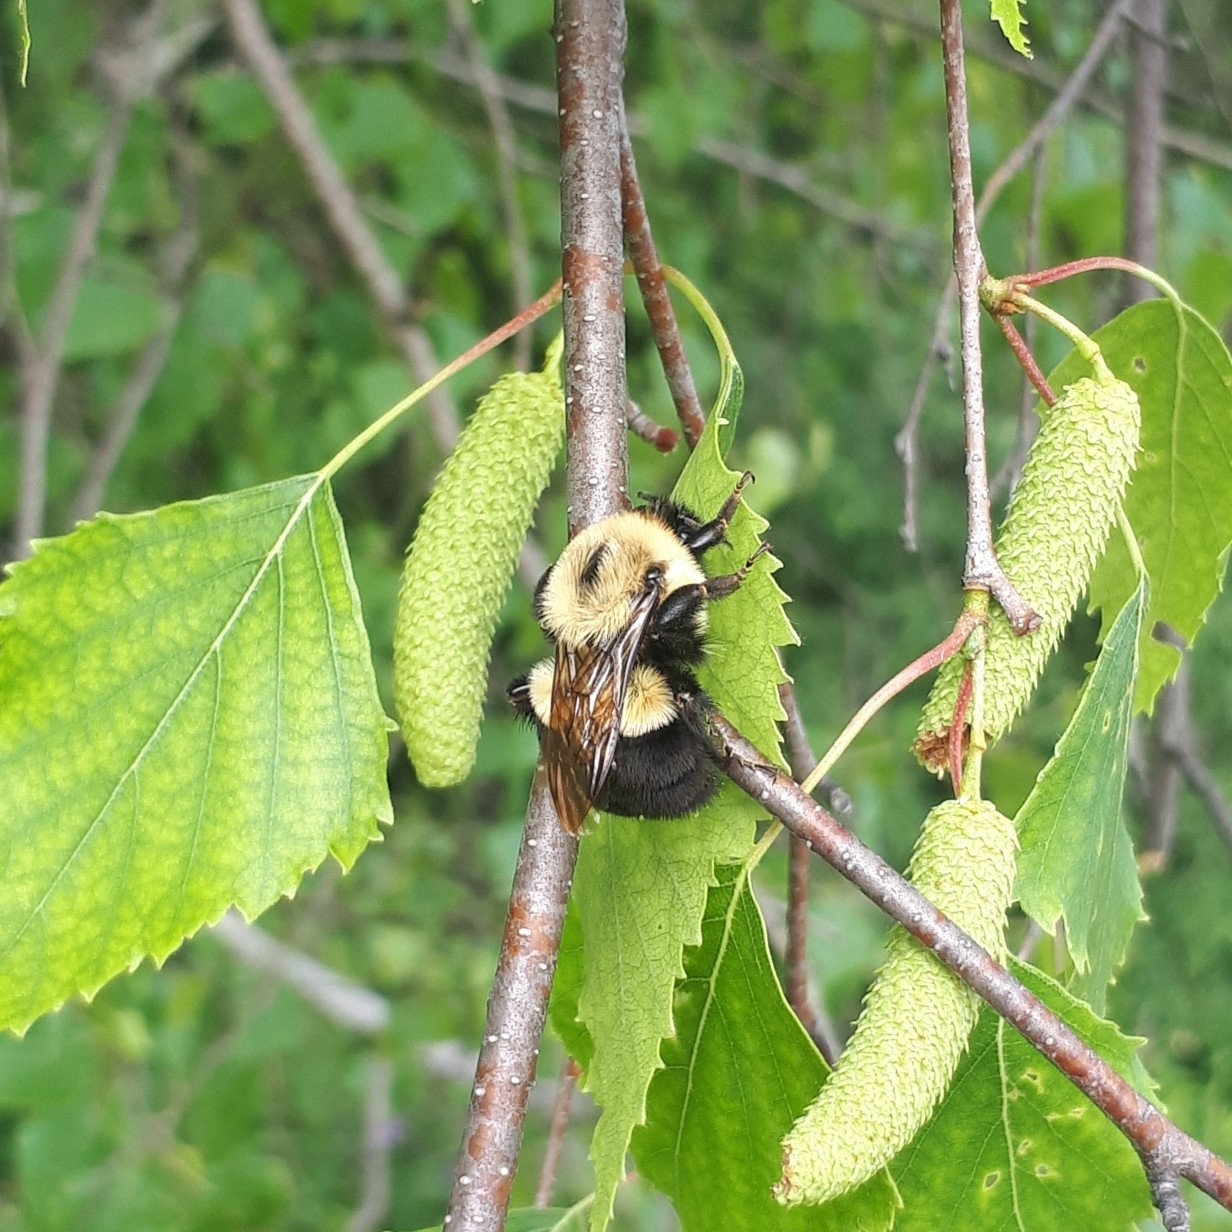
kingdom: Animalia
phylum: Arthropoda
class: Insecta
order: Hymenoptera
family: Apidae
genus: Bombus
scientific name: Bombus impatiens
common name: Common eastern bumble bee
